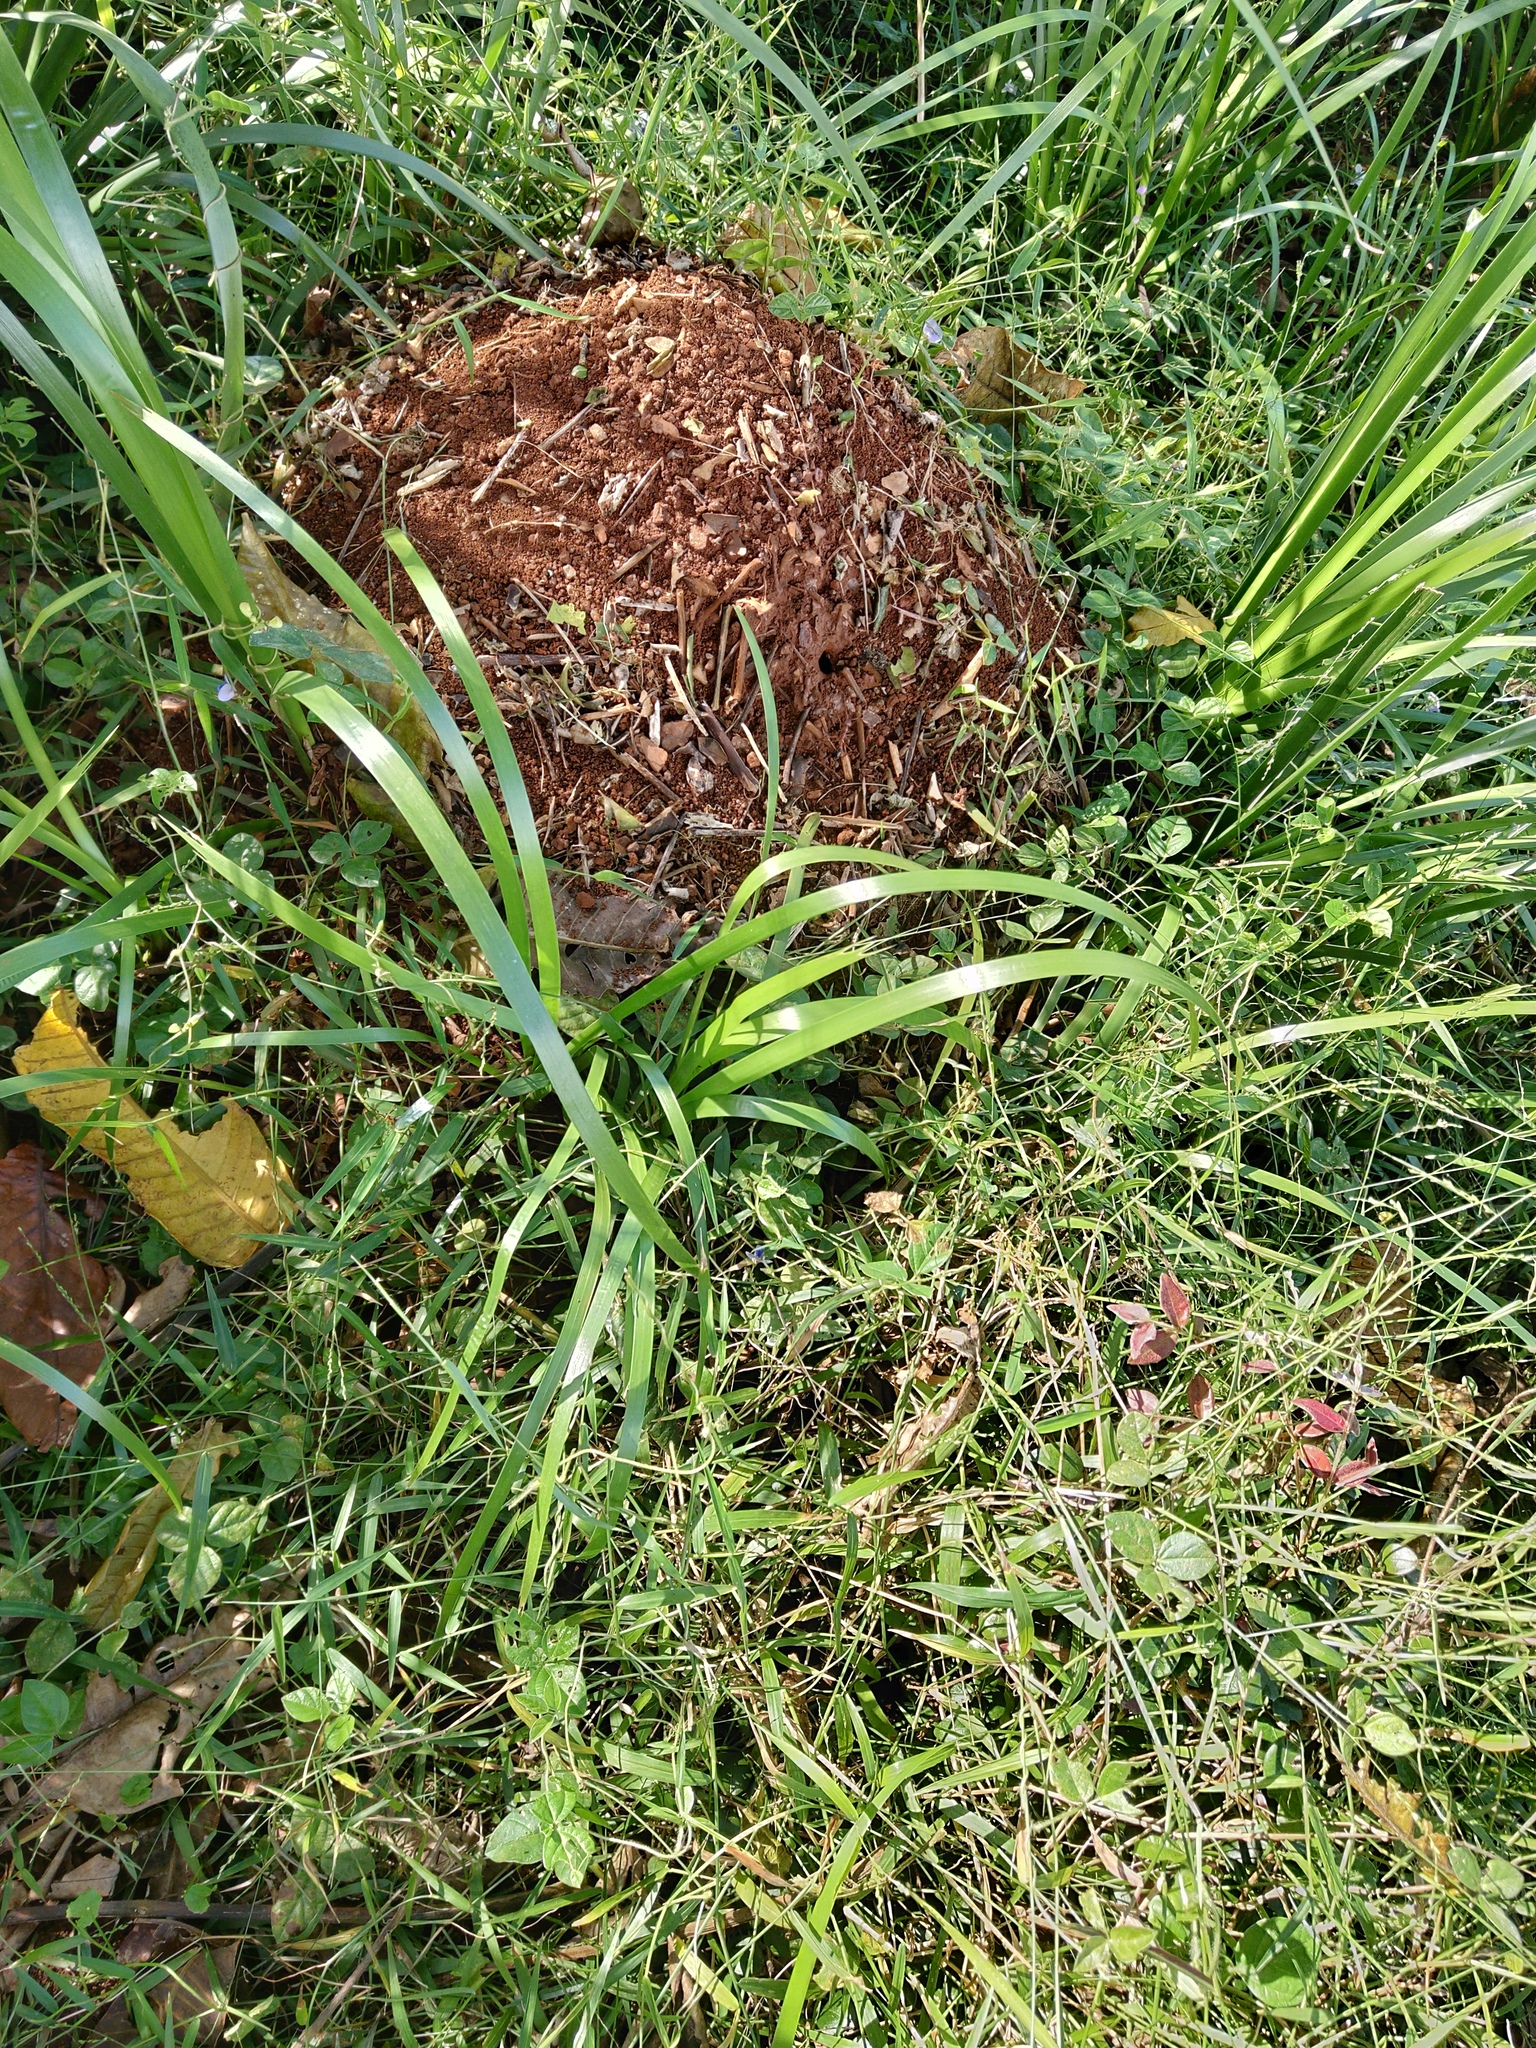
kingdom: Animalia
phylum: Arthropoda
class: Insecta
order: Hymenoptera
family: Formicidae
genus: Myrmecia
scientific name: Myrmecia brevinoda
